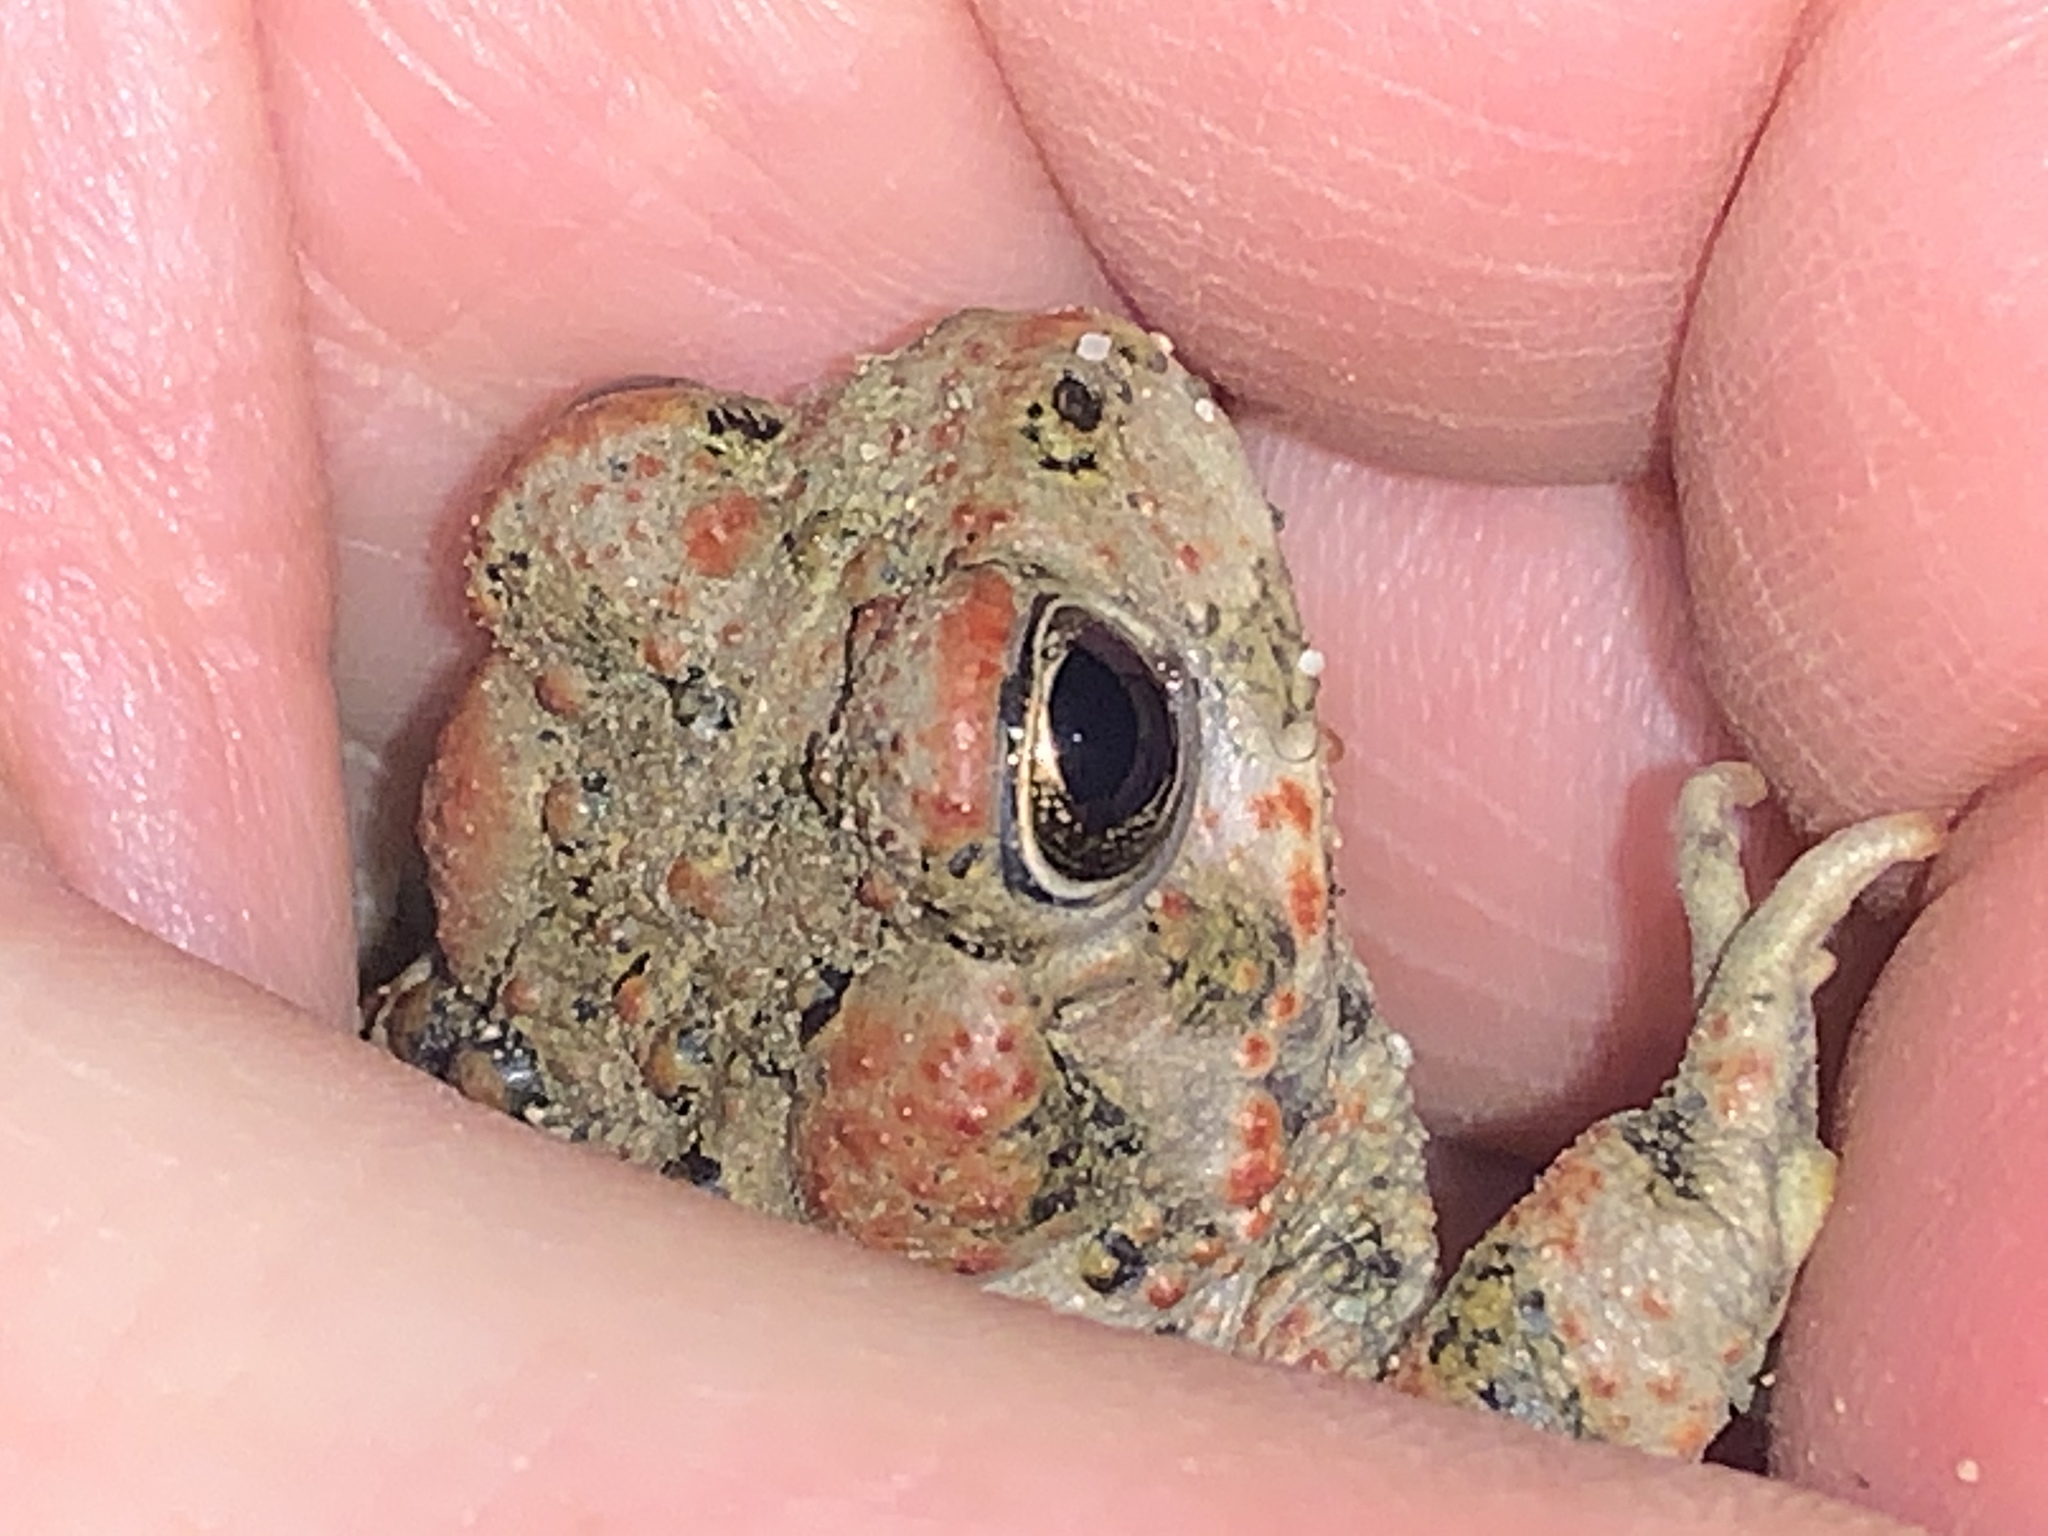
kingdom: Animalia
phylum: Chordata
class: Amphibia
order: Anura
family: Bufonidae
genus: Anaxyrus
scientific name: Anaxyrus boreas
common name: Western toad
